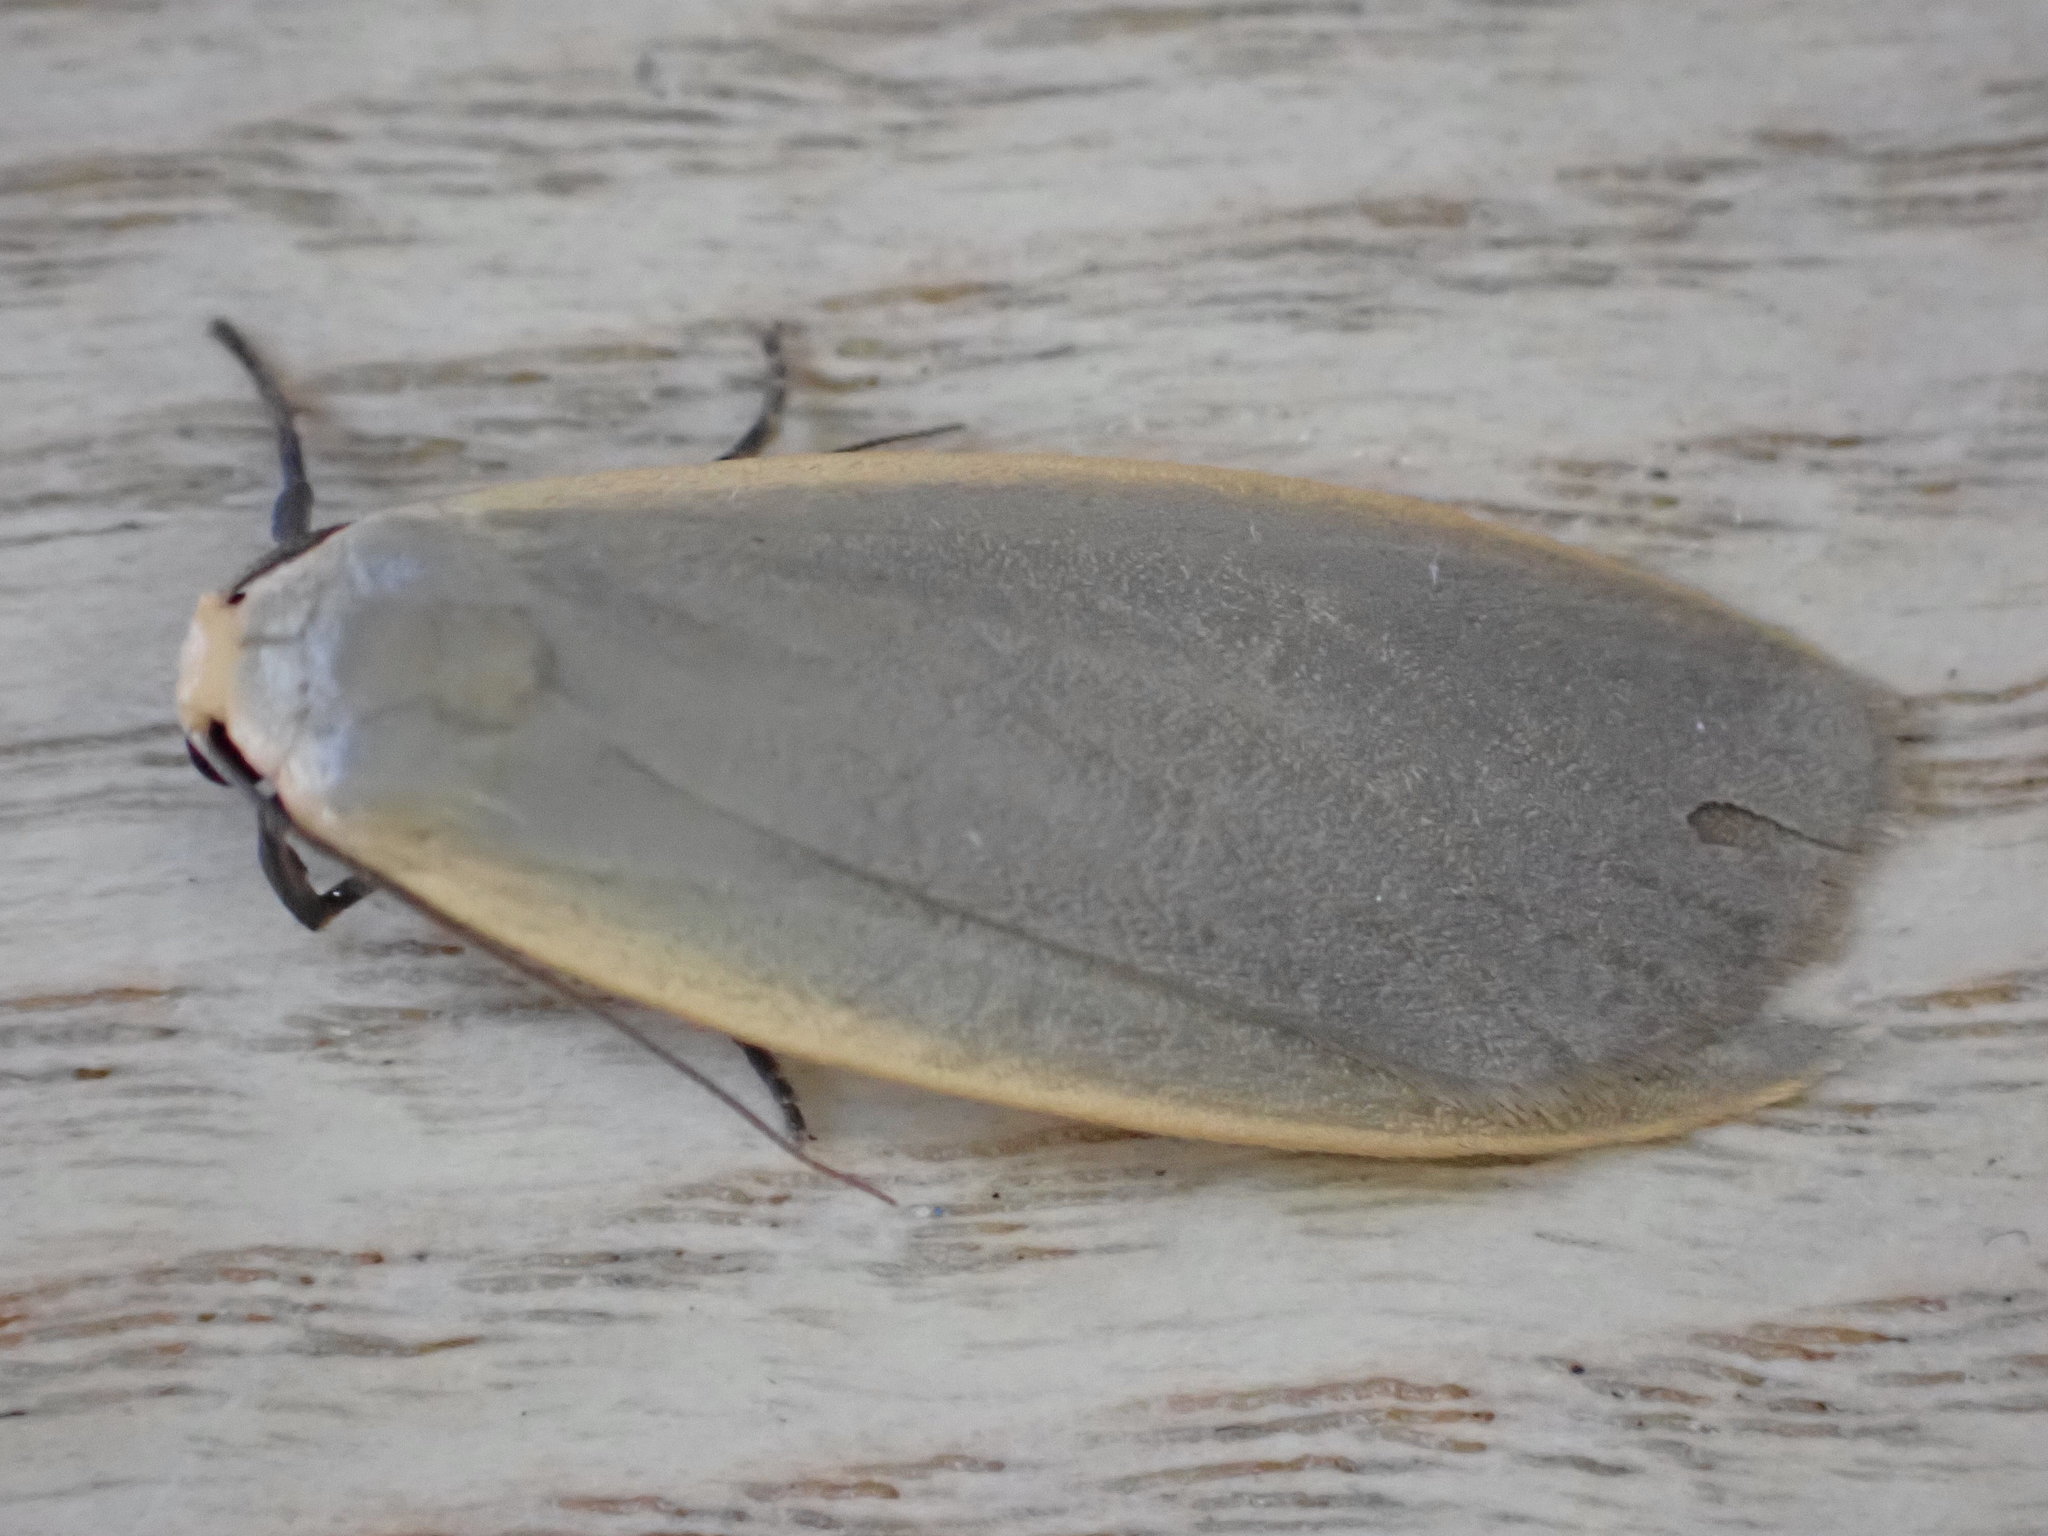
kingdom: Animalia
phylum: Arthropoda
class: Insecta
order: Lepidoptera
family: Erebidae
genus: Collita
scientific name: Collita griseola
